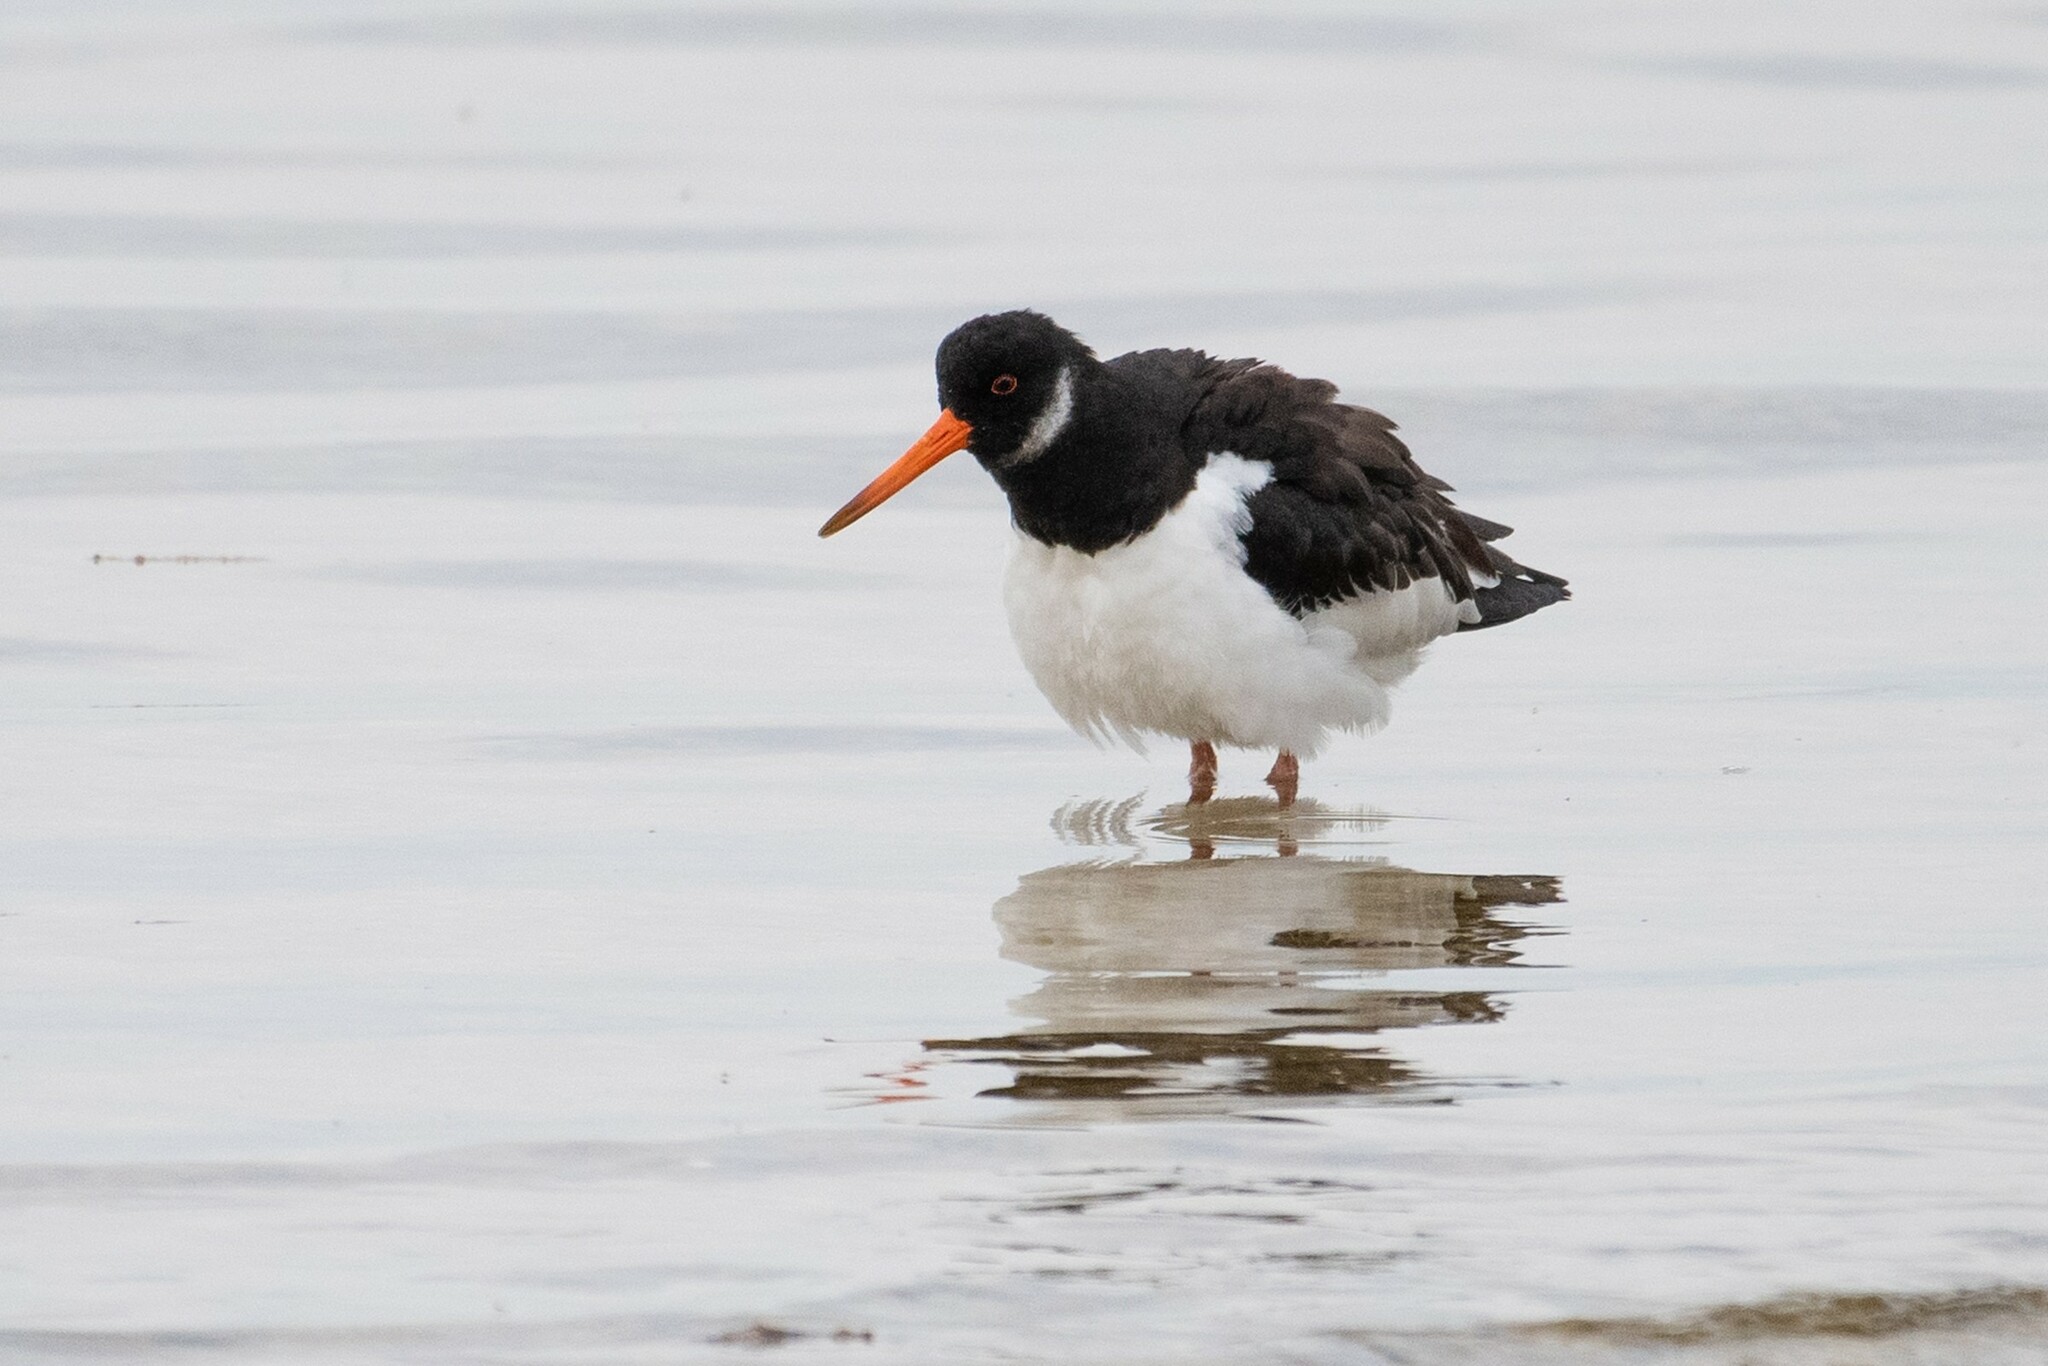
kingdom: Animalia
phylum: Chordata
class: Aves
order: Charadriiformes
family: Haematopodidae
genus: Haematopus
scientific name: Haematopus ostralegus
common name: Eurasian oystercatcher
